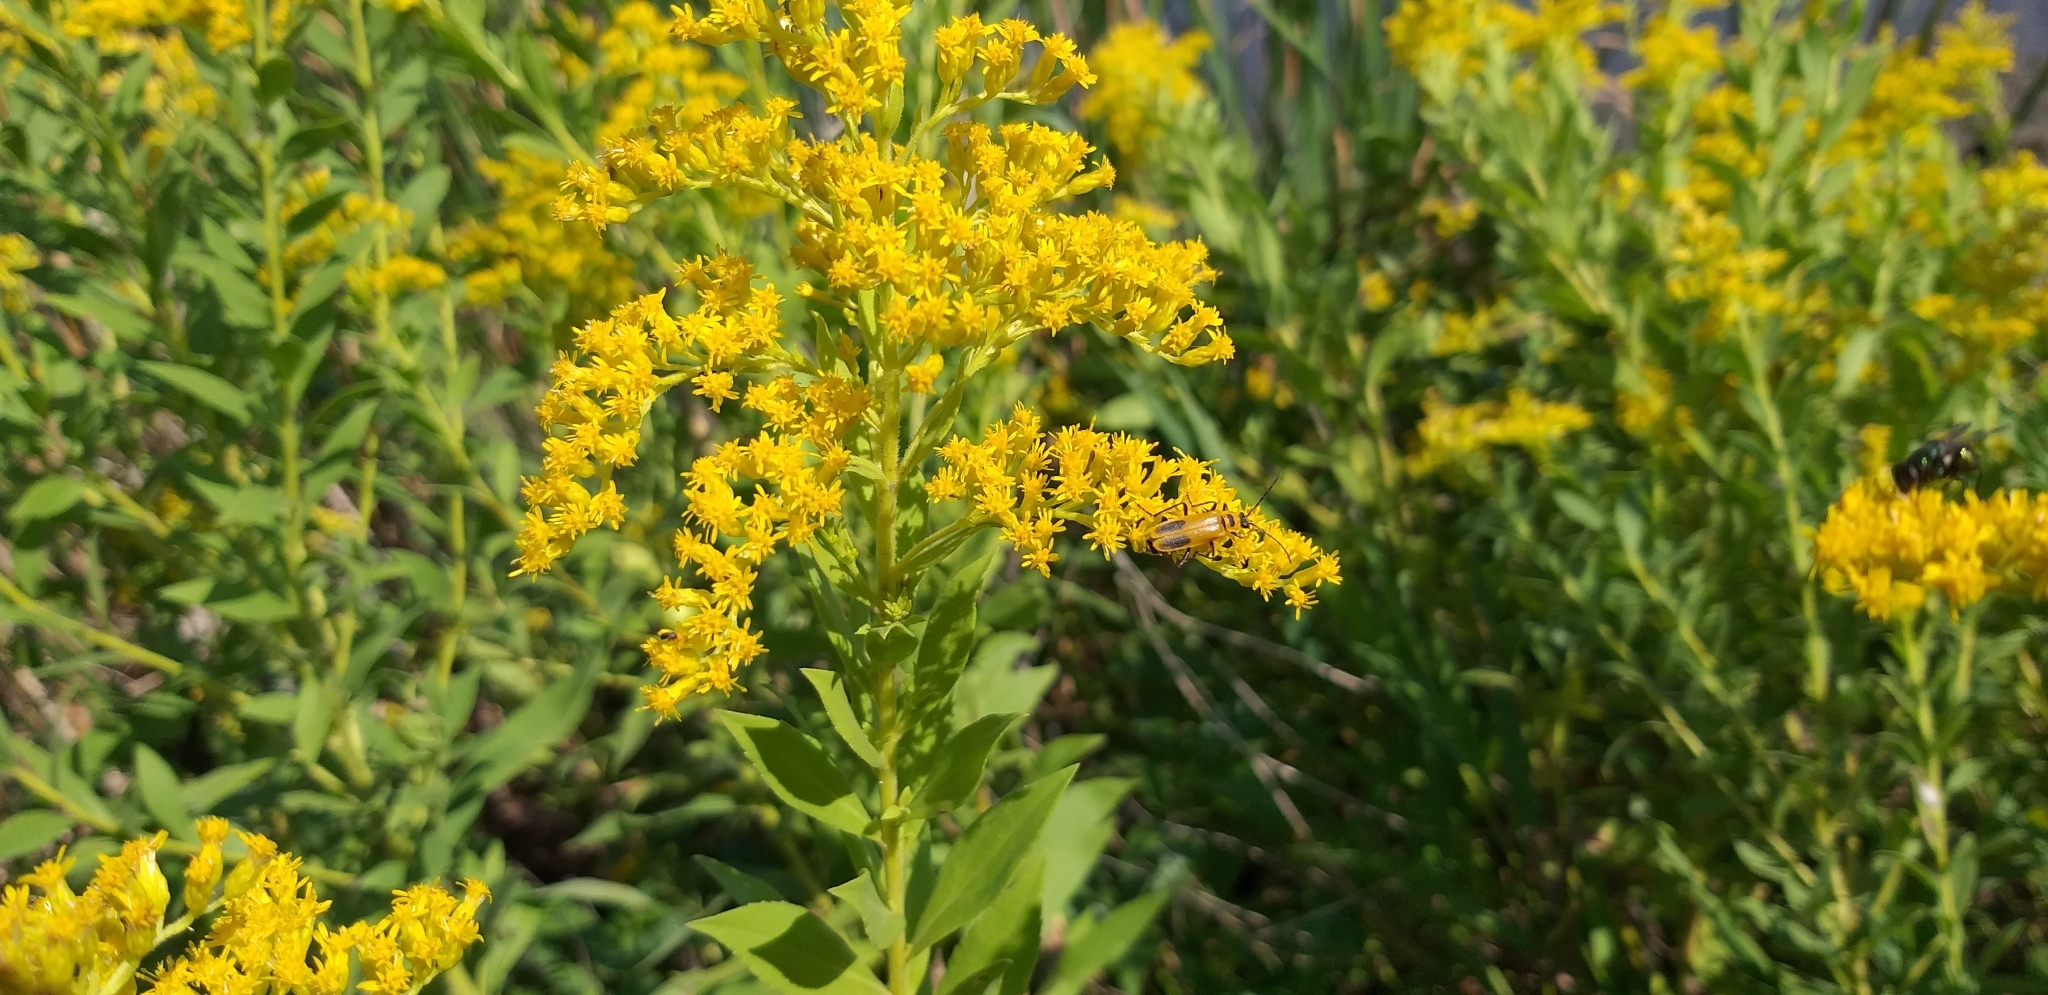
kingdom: Animalia
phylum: Arthropoda
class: Insecta
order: Coleoptera
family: Cantharidae
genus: Chauliognathus
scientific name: Chauliognathus pensylvanicus
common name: Goldenrod soldier beetle
